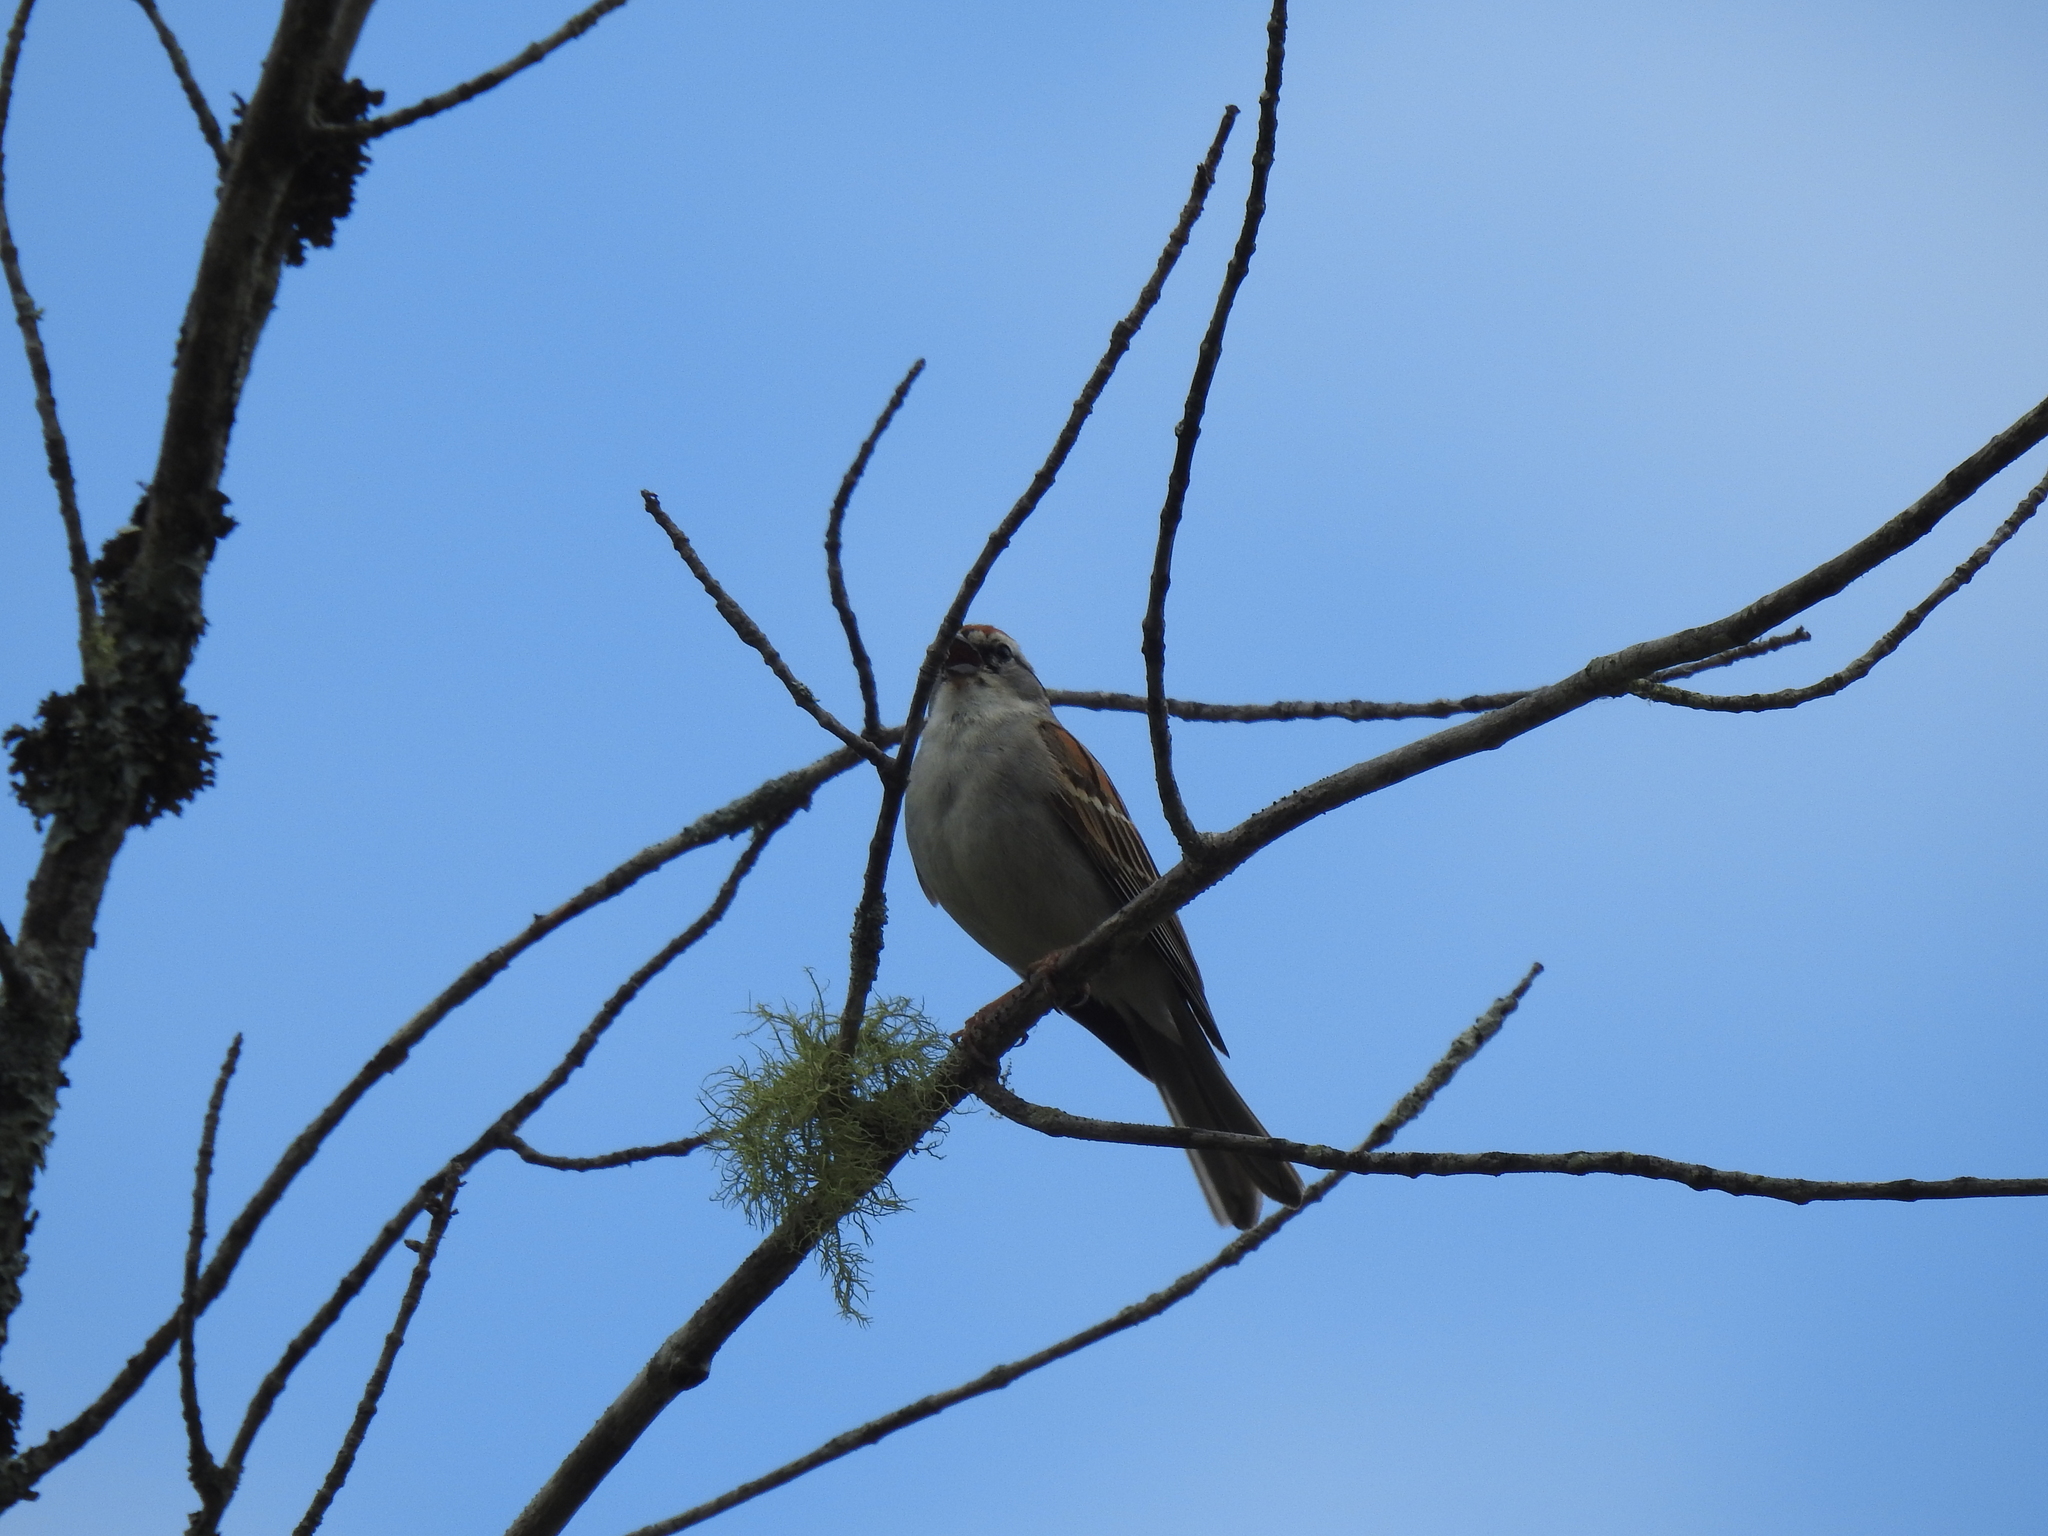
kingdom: Animalia
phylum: Chordata
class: Aves
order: Passeriformes
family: Passerellidae
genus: Spizella
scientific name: Spizella passerina
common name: Chipping sparrow
